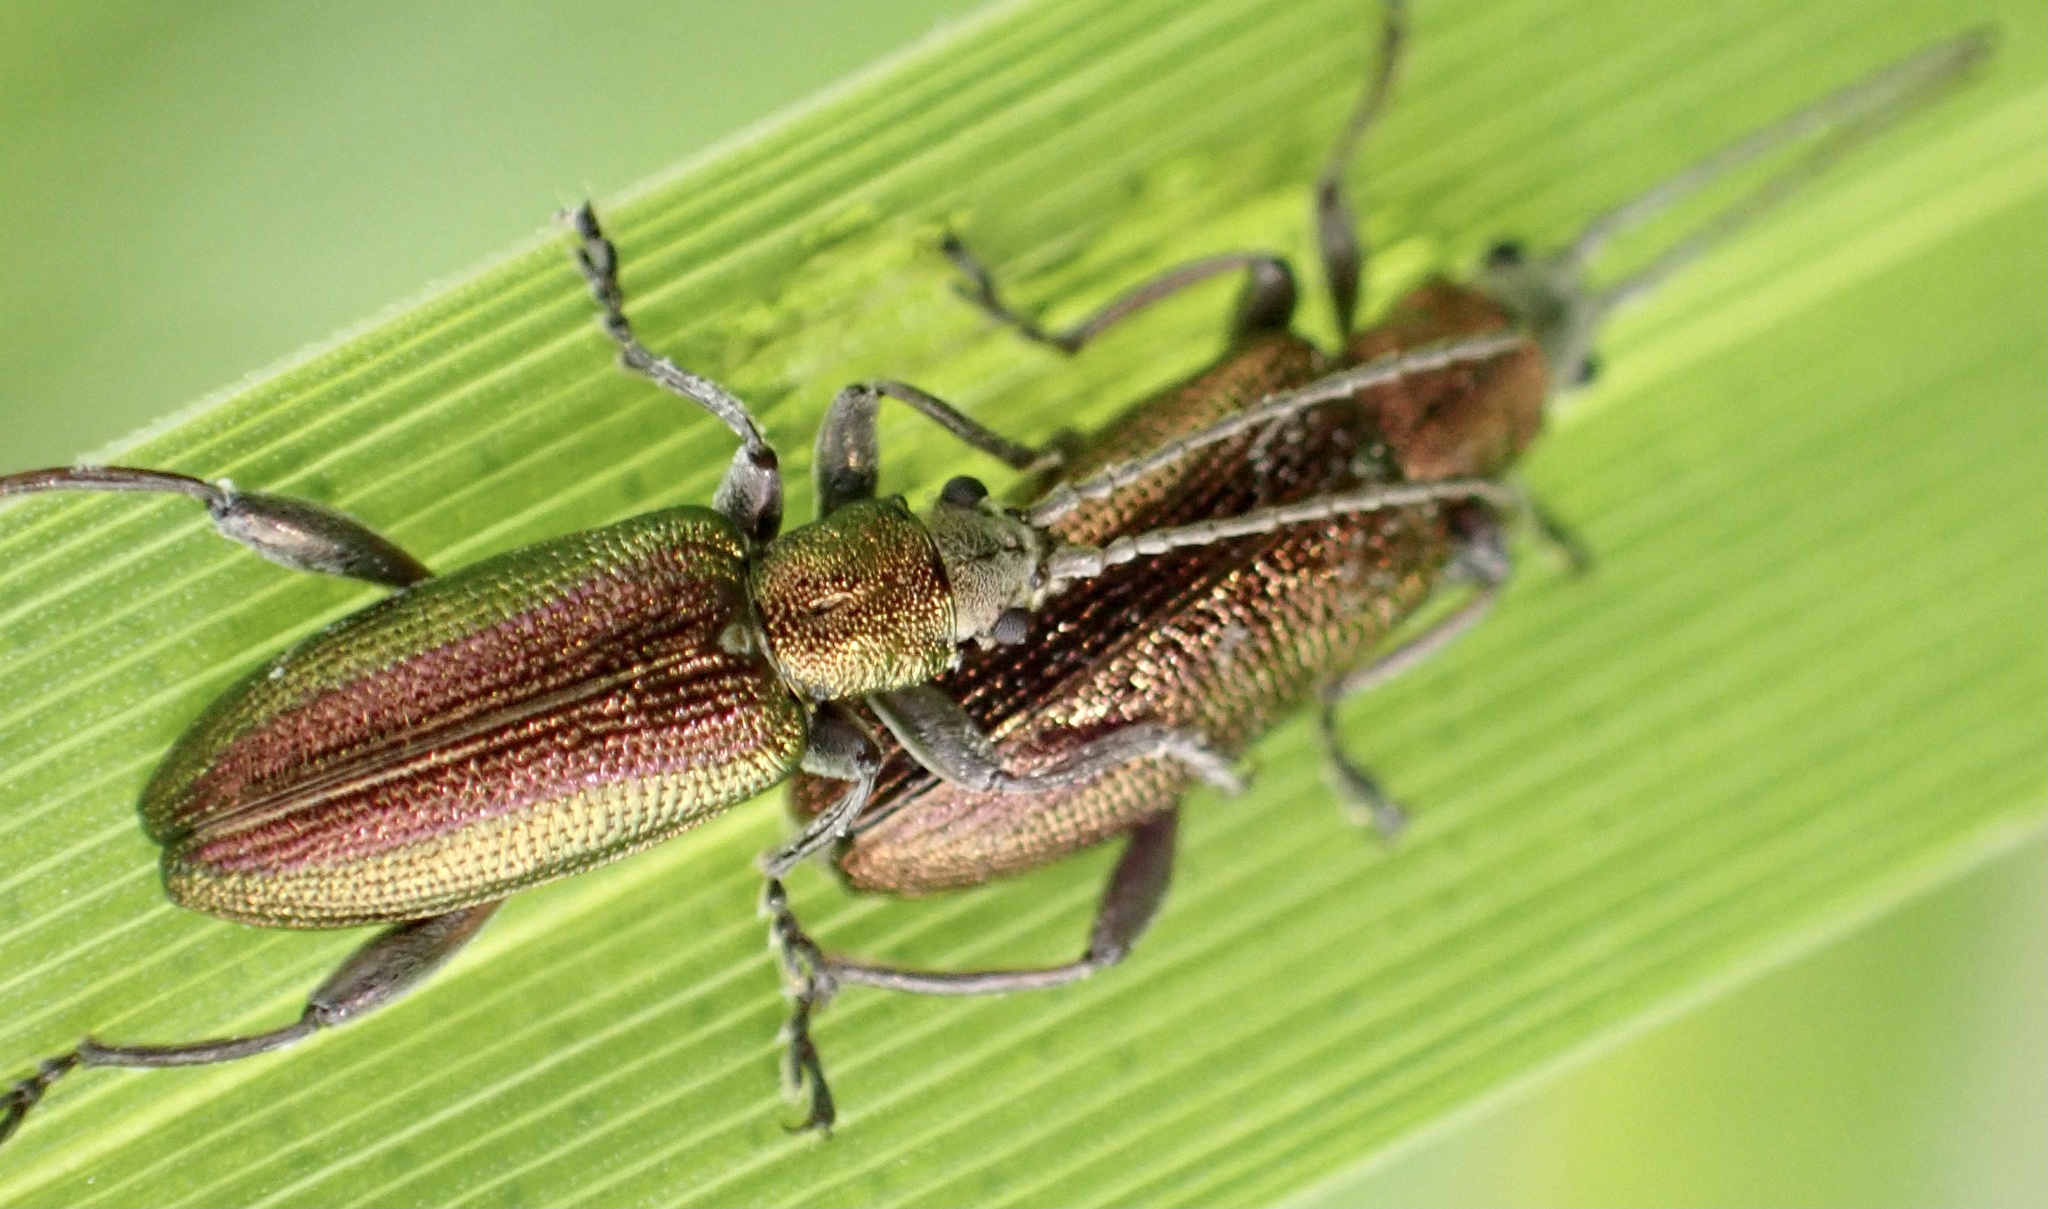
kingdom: Animalia
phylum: Arthropoda
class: Insecta
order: Coleoptera
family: Chrysomelidae
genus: Donacia
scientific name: Donacia semicuprea
